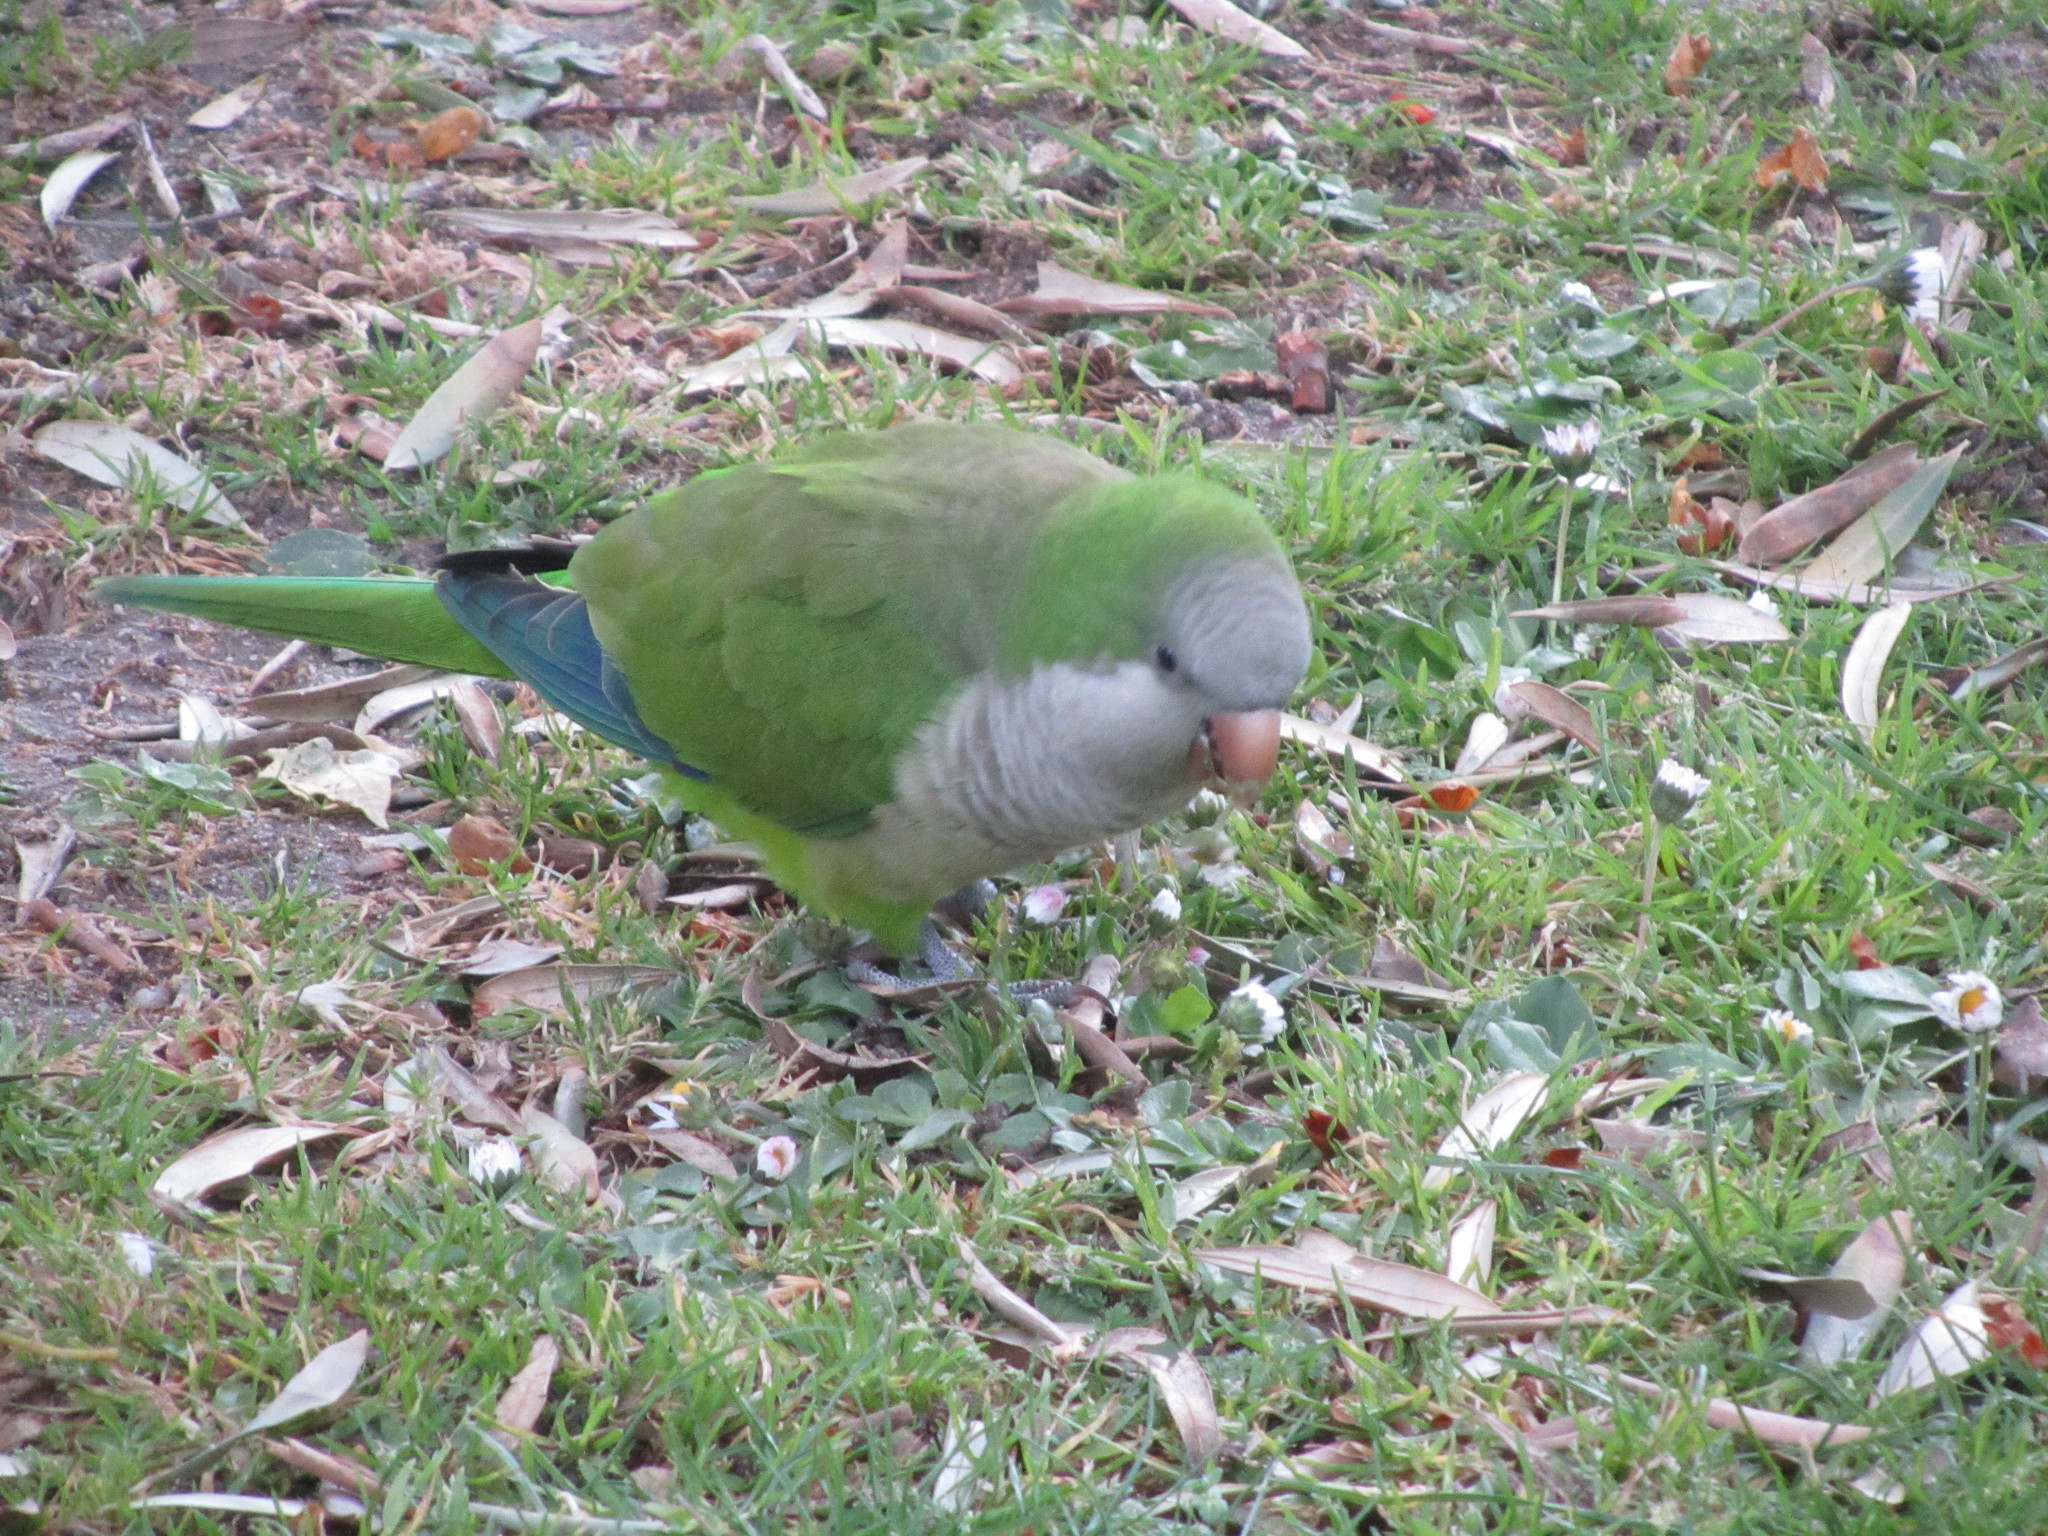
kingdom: Animalia
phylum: Chordata
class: Aves
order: Psittaciformes
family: Psittacidae
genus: Myiopsitta
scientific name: Myiopsitta monachus
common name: Monk parakeet
